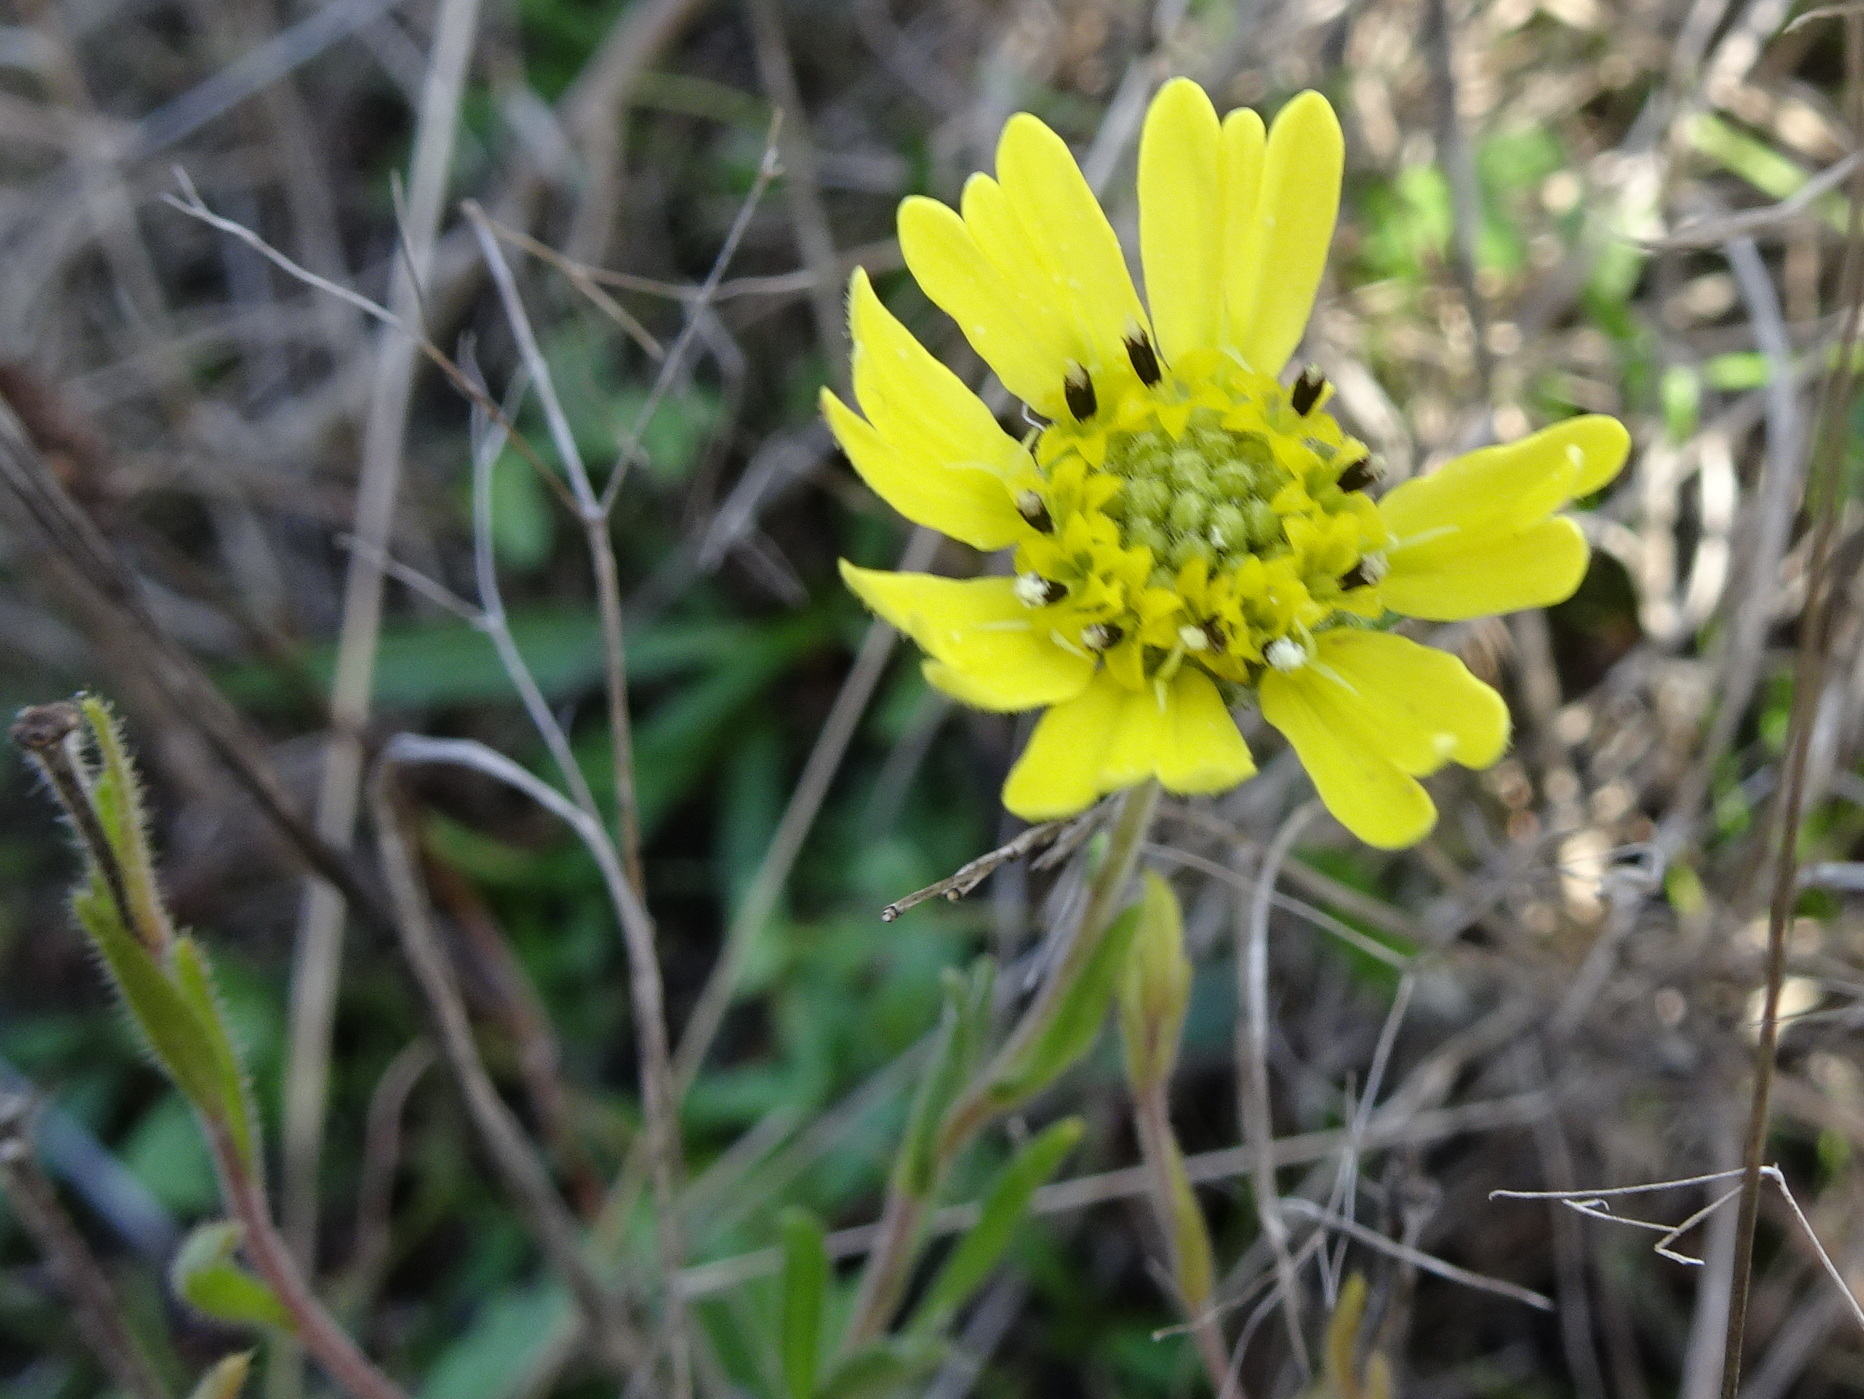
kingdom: Plantae
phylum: Tracheophyta
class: Magnoliopsida
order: Asterales
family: Asteraceae
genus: Hemizonia
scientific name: Hemizonia congesta
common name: Hayfield tarweed
